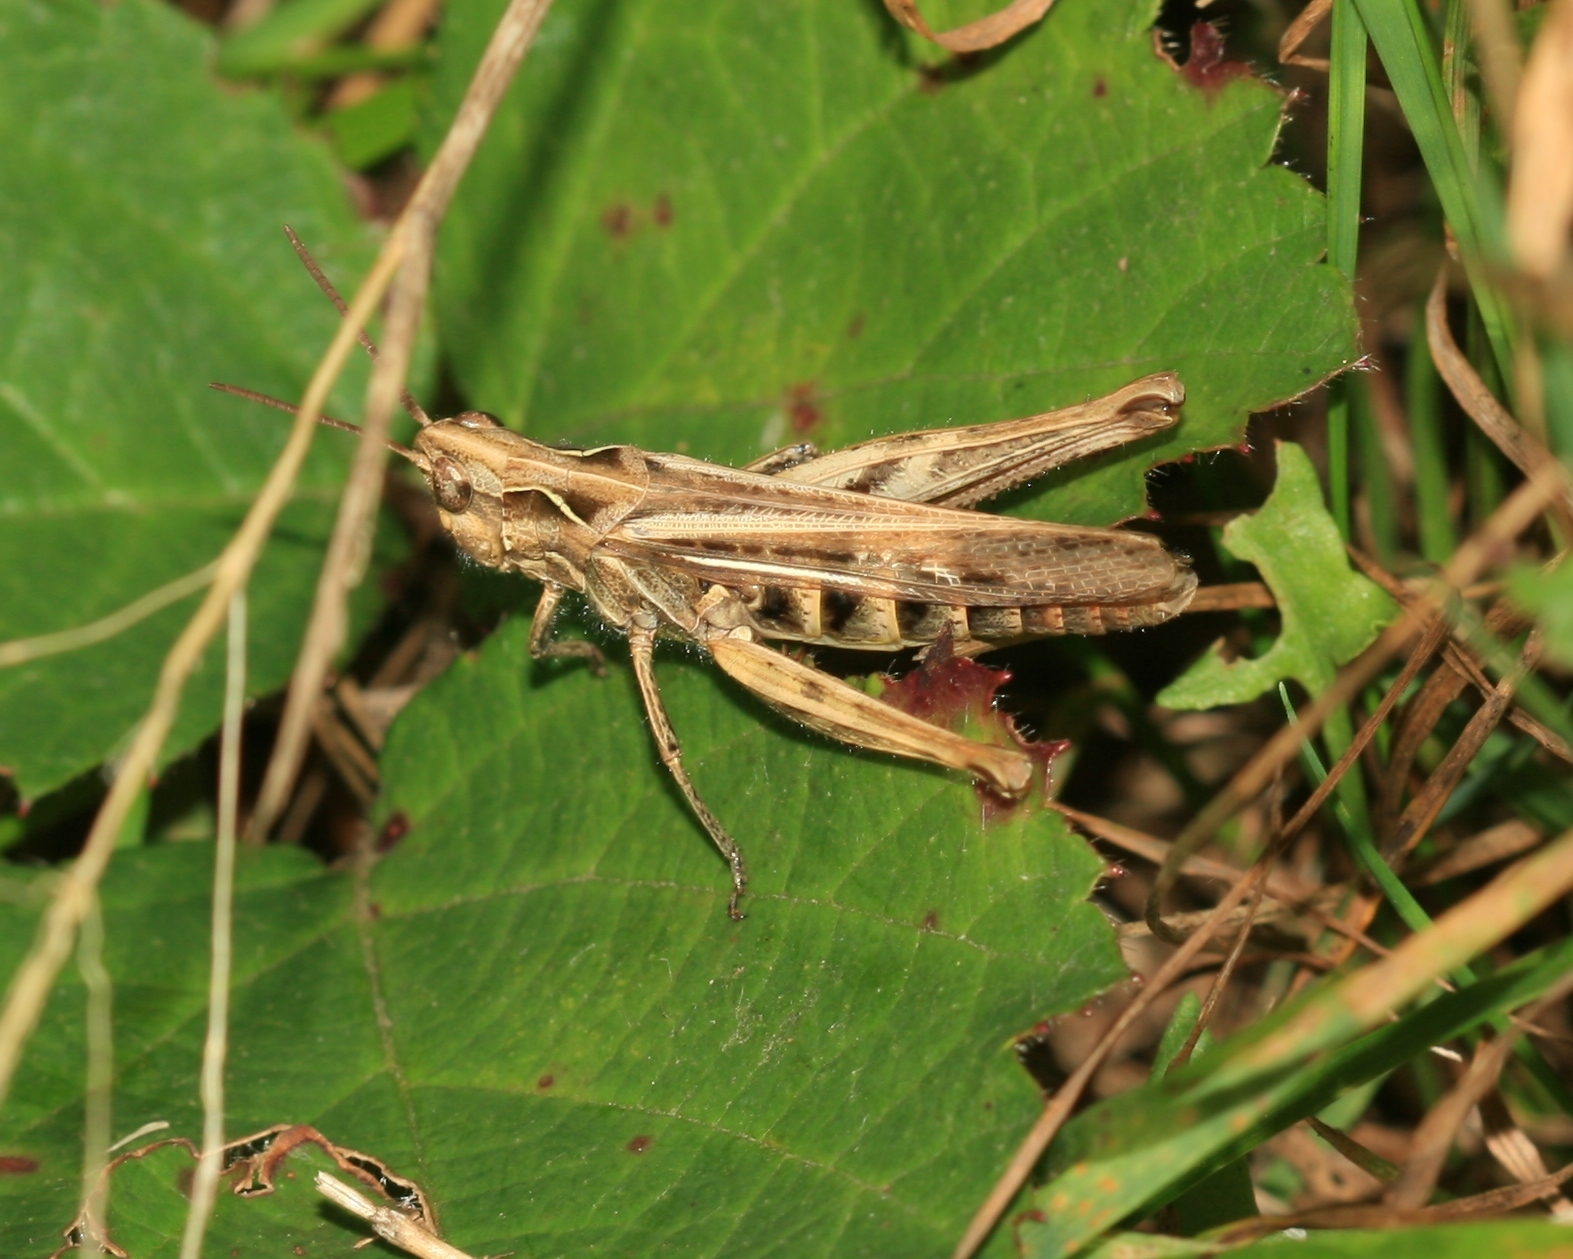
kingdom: Animalia
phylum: Arthropoda
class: Insecta
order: Orthoptera
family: Acrididae
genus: Chorthippus
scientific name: Chorthippus brunneus
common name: Field grasshopper
